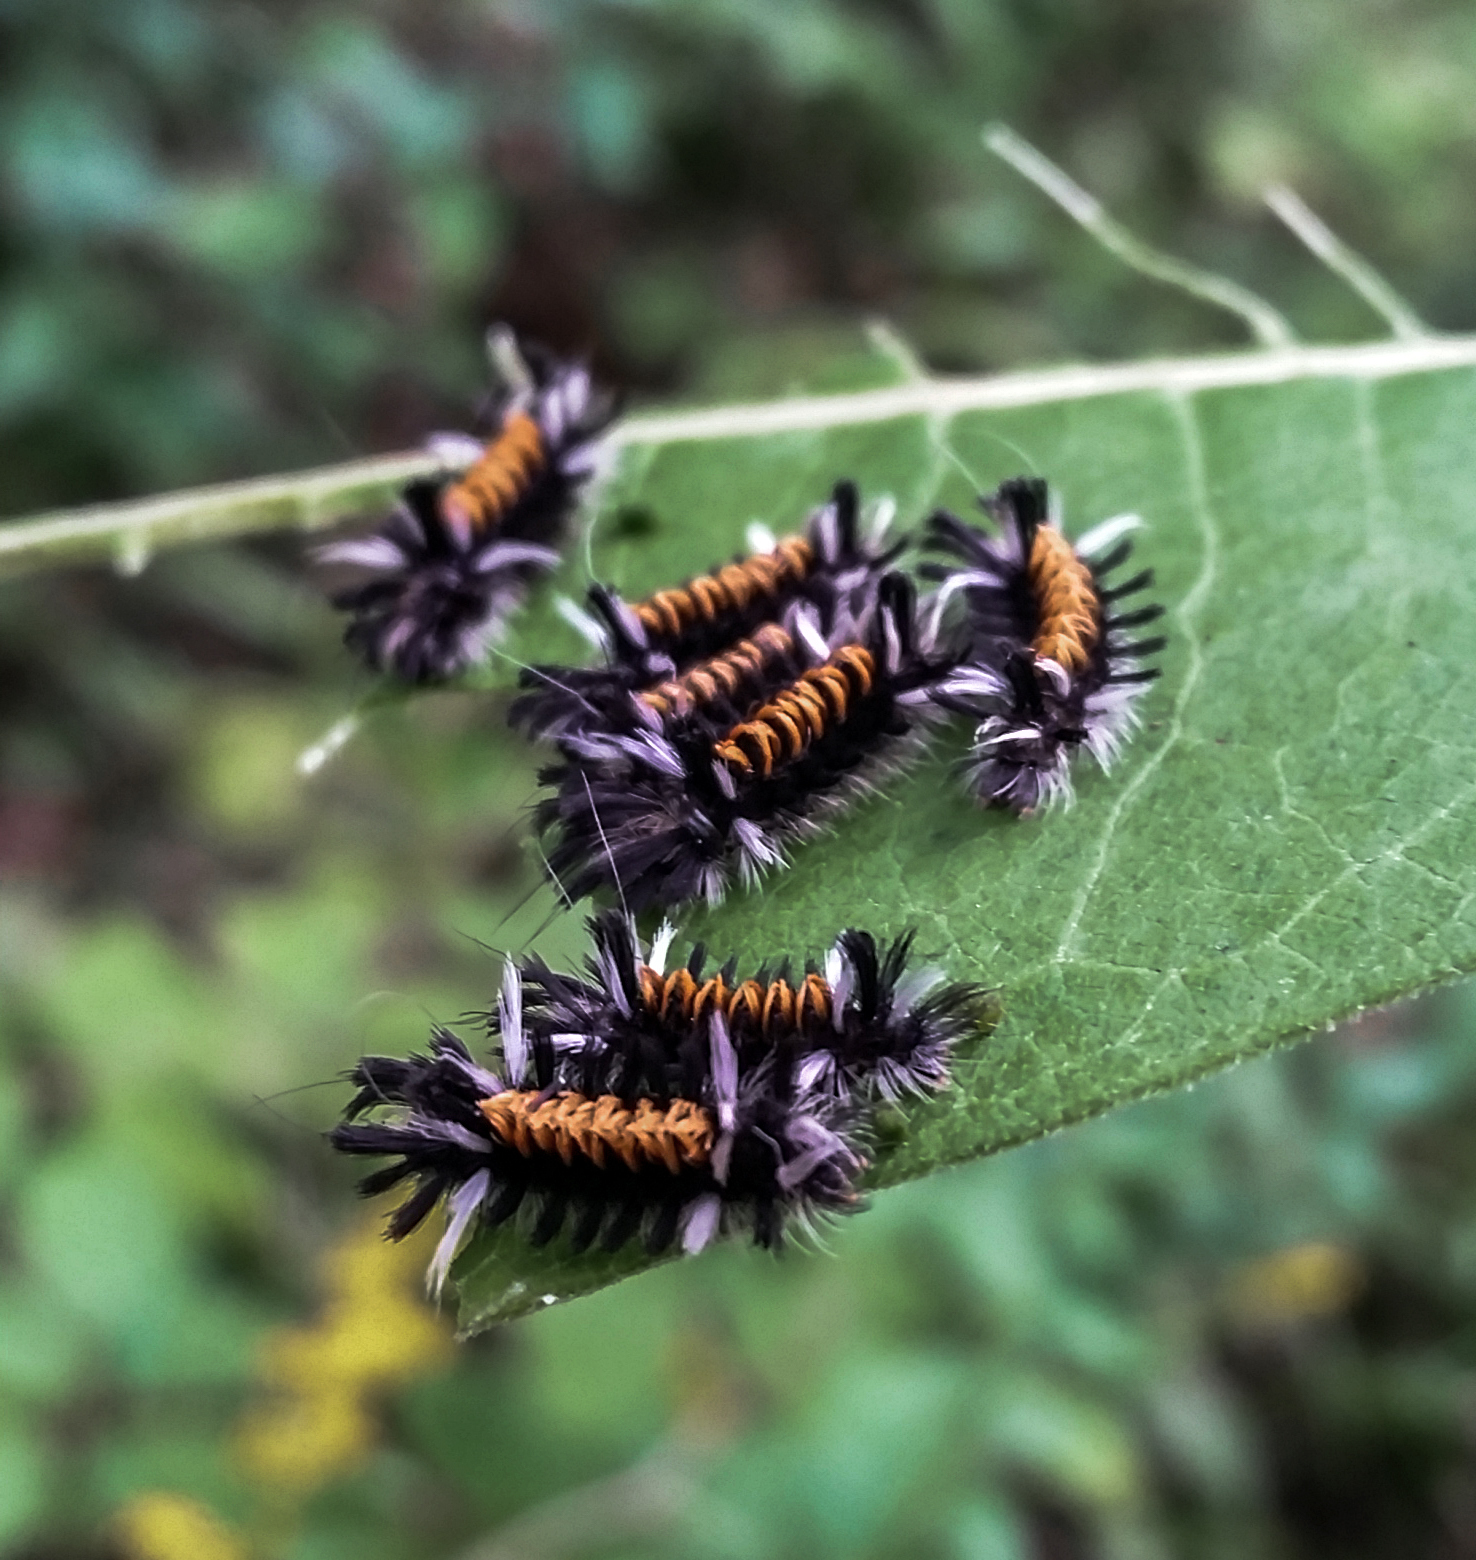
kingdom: Animalia
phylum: Arthropoda
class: Insecta
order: Lepidoptera
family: Erebidae
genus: Euchaetes
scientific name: Euchaetes egle
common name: Milkweed tussock moth
